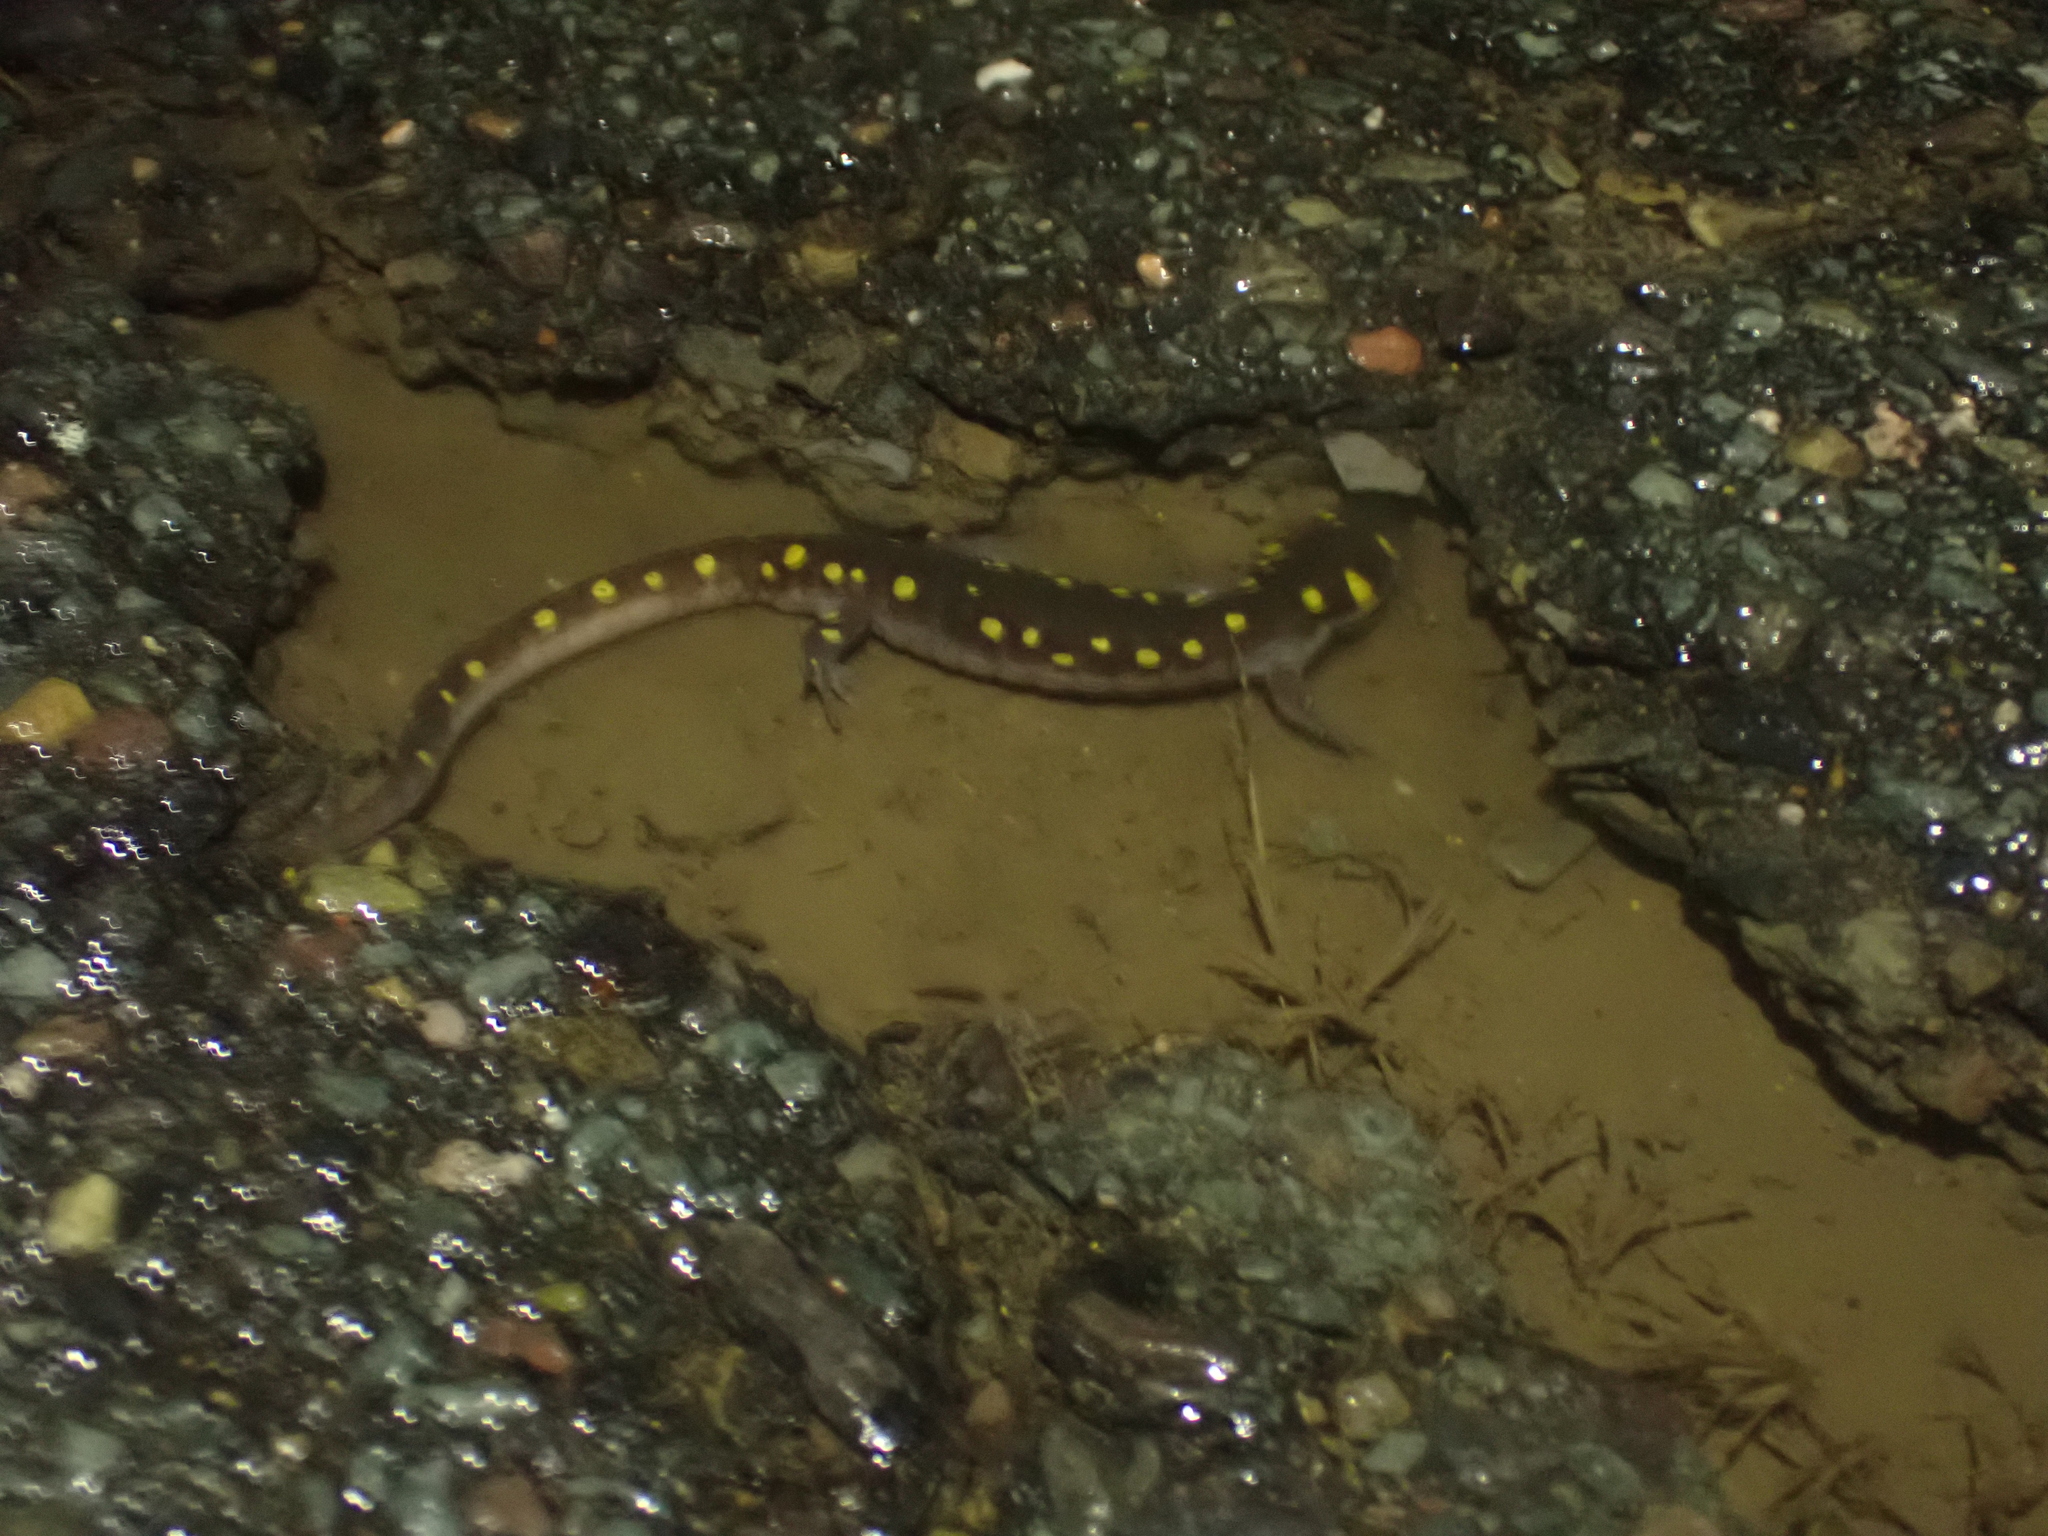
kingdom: Animalia
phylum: Chordata
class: Amphibia
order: Caudata
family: Ambystomatidae
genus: Ambystoma
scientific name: Ambystoma maculatum
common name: Spotted salamander
